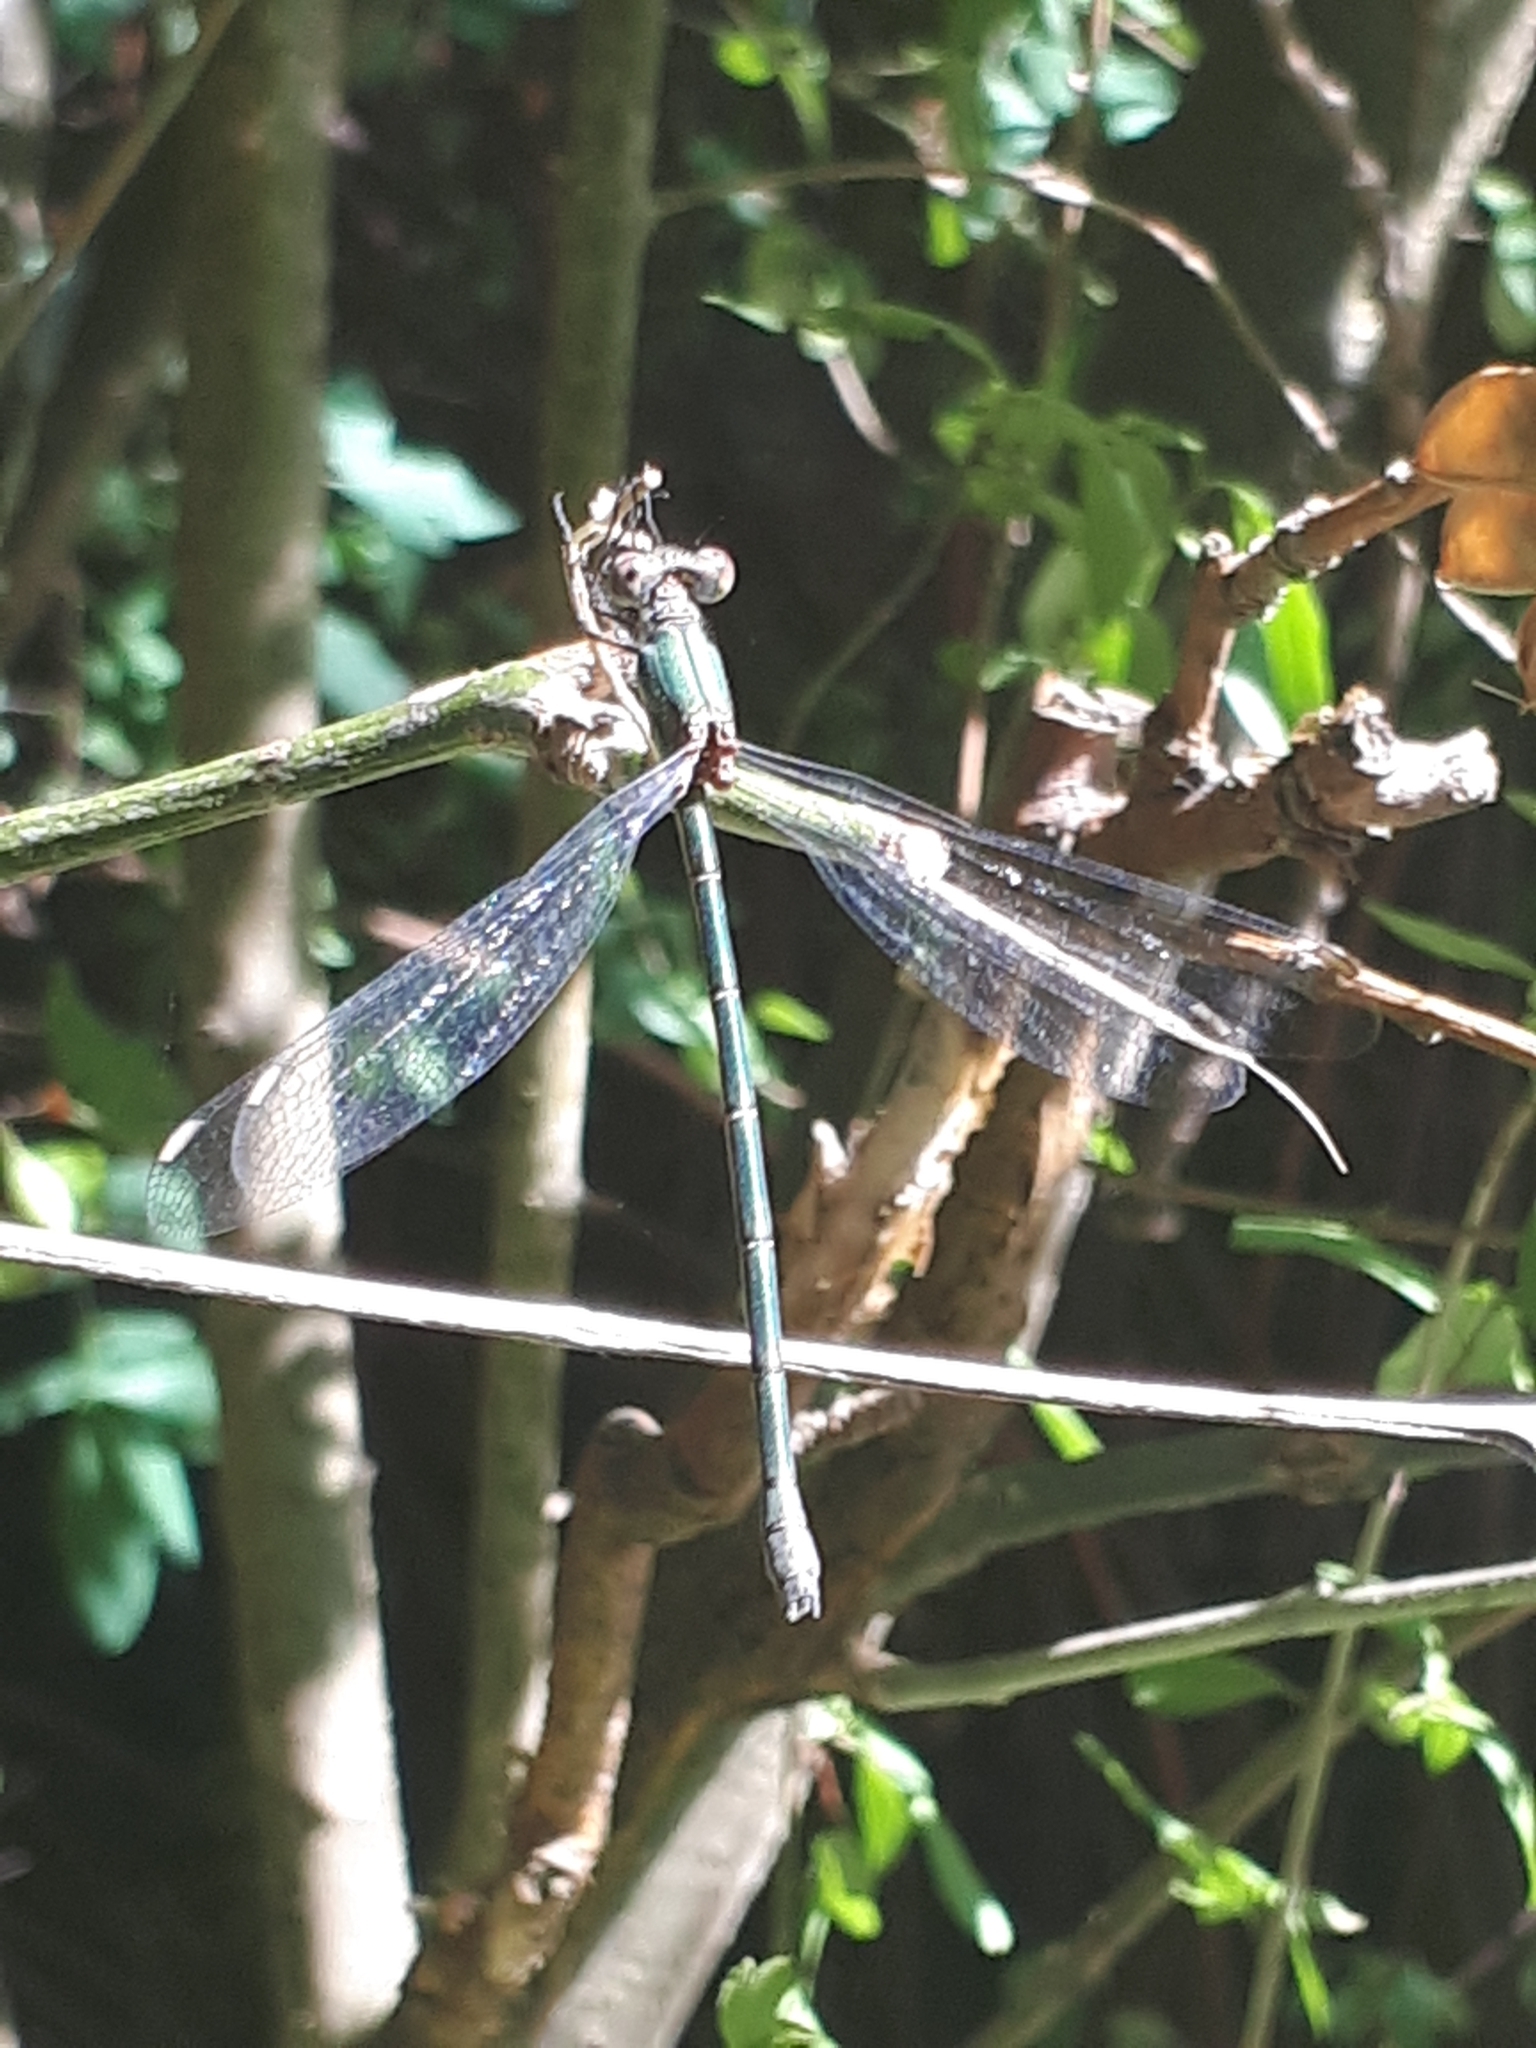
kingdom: Animalia
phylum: Arthropoda
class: Insecta
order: Odonata
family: Lestidae
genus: Chalcolestes
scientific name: Chalcolestes viridis
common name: Green emerald damselfly
